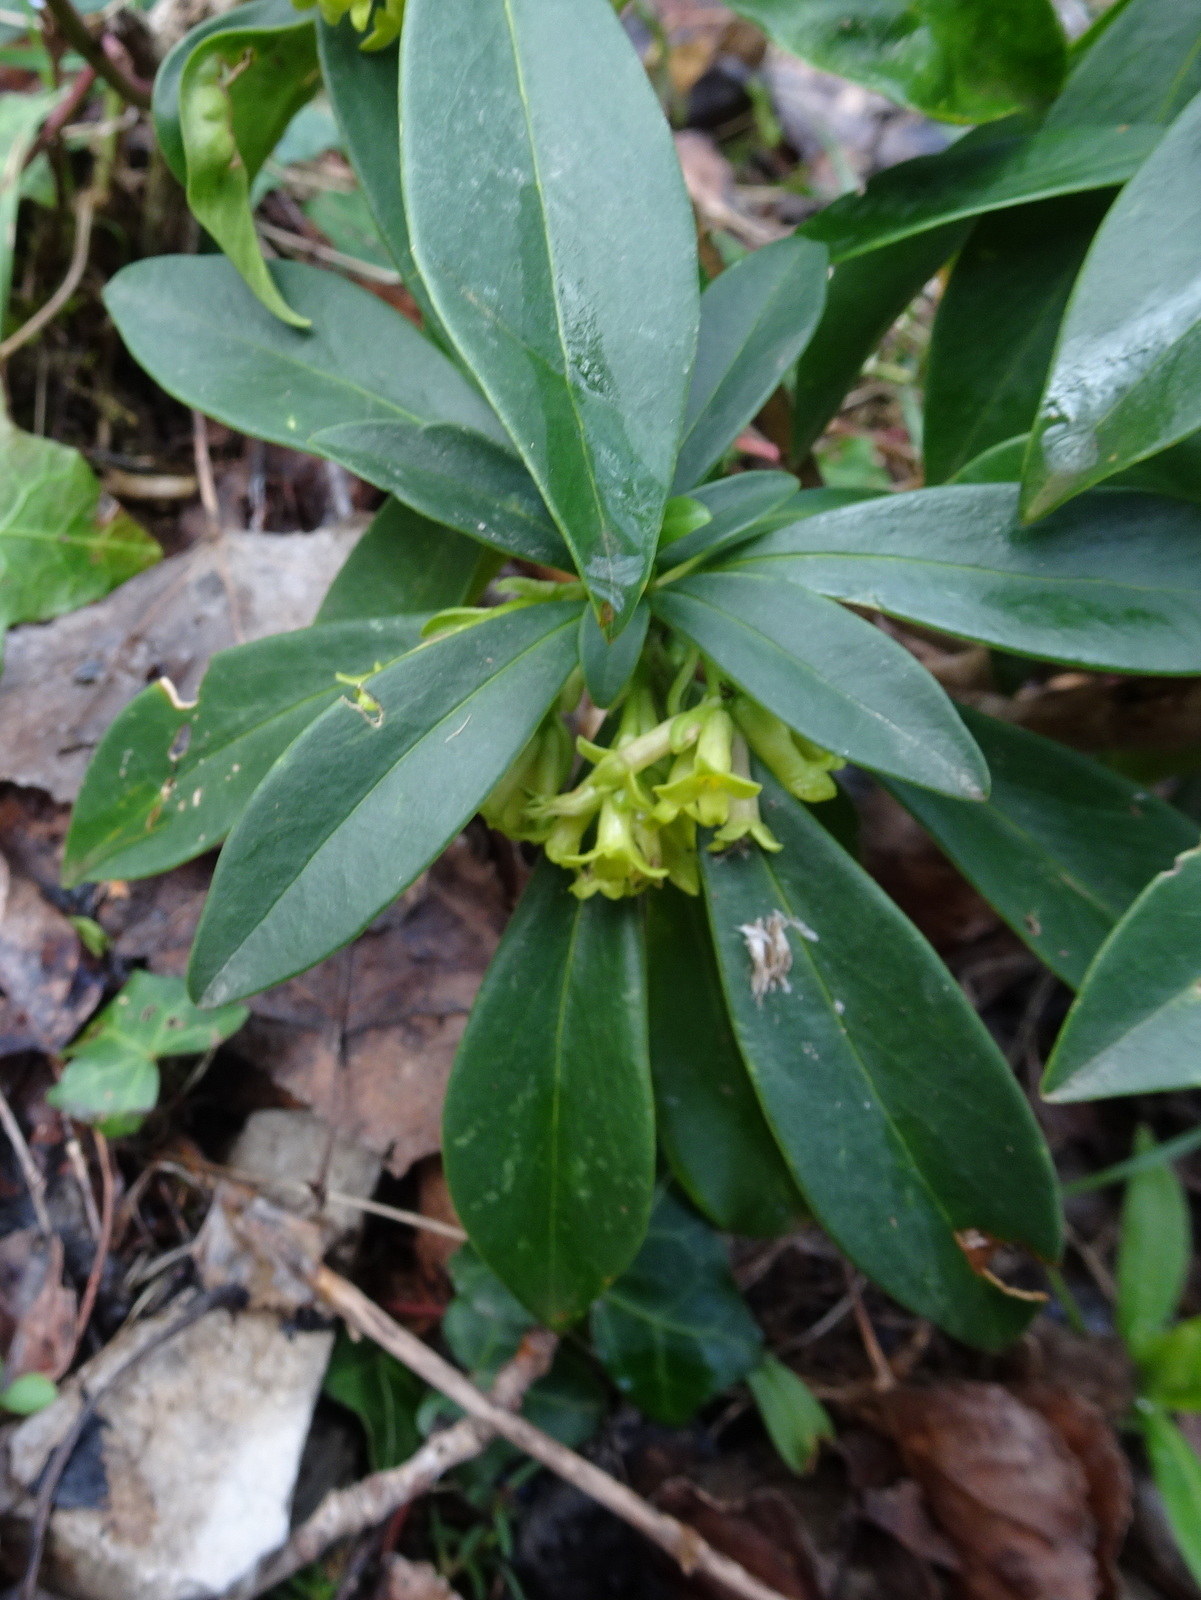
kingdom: Plantae
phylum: Tracheophyta
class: Magnoliopsida
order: Malvales
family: Thymelaeaceae
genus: Daphne
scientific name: Daphne laureola
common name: Spurge-laurel
